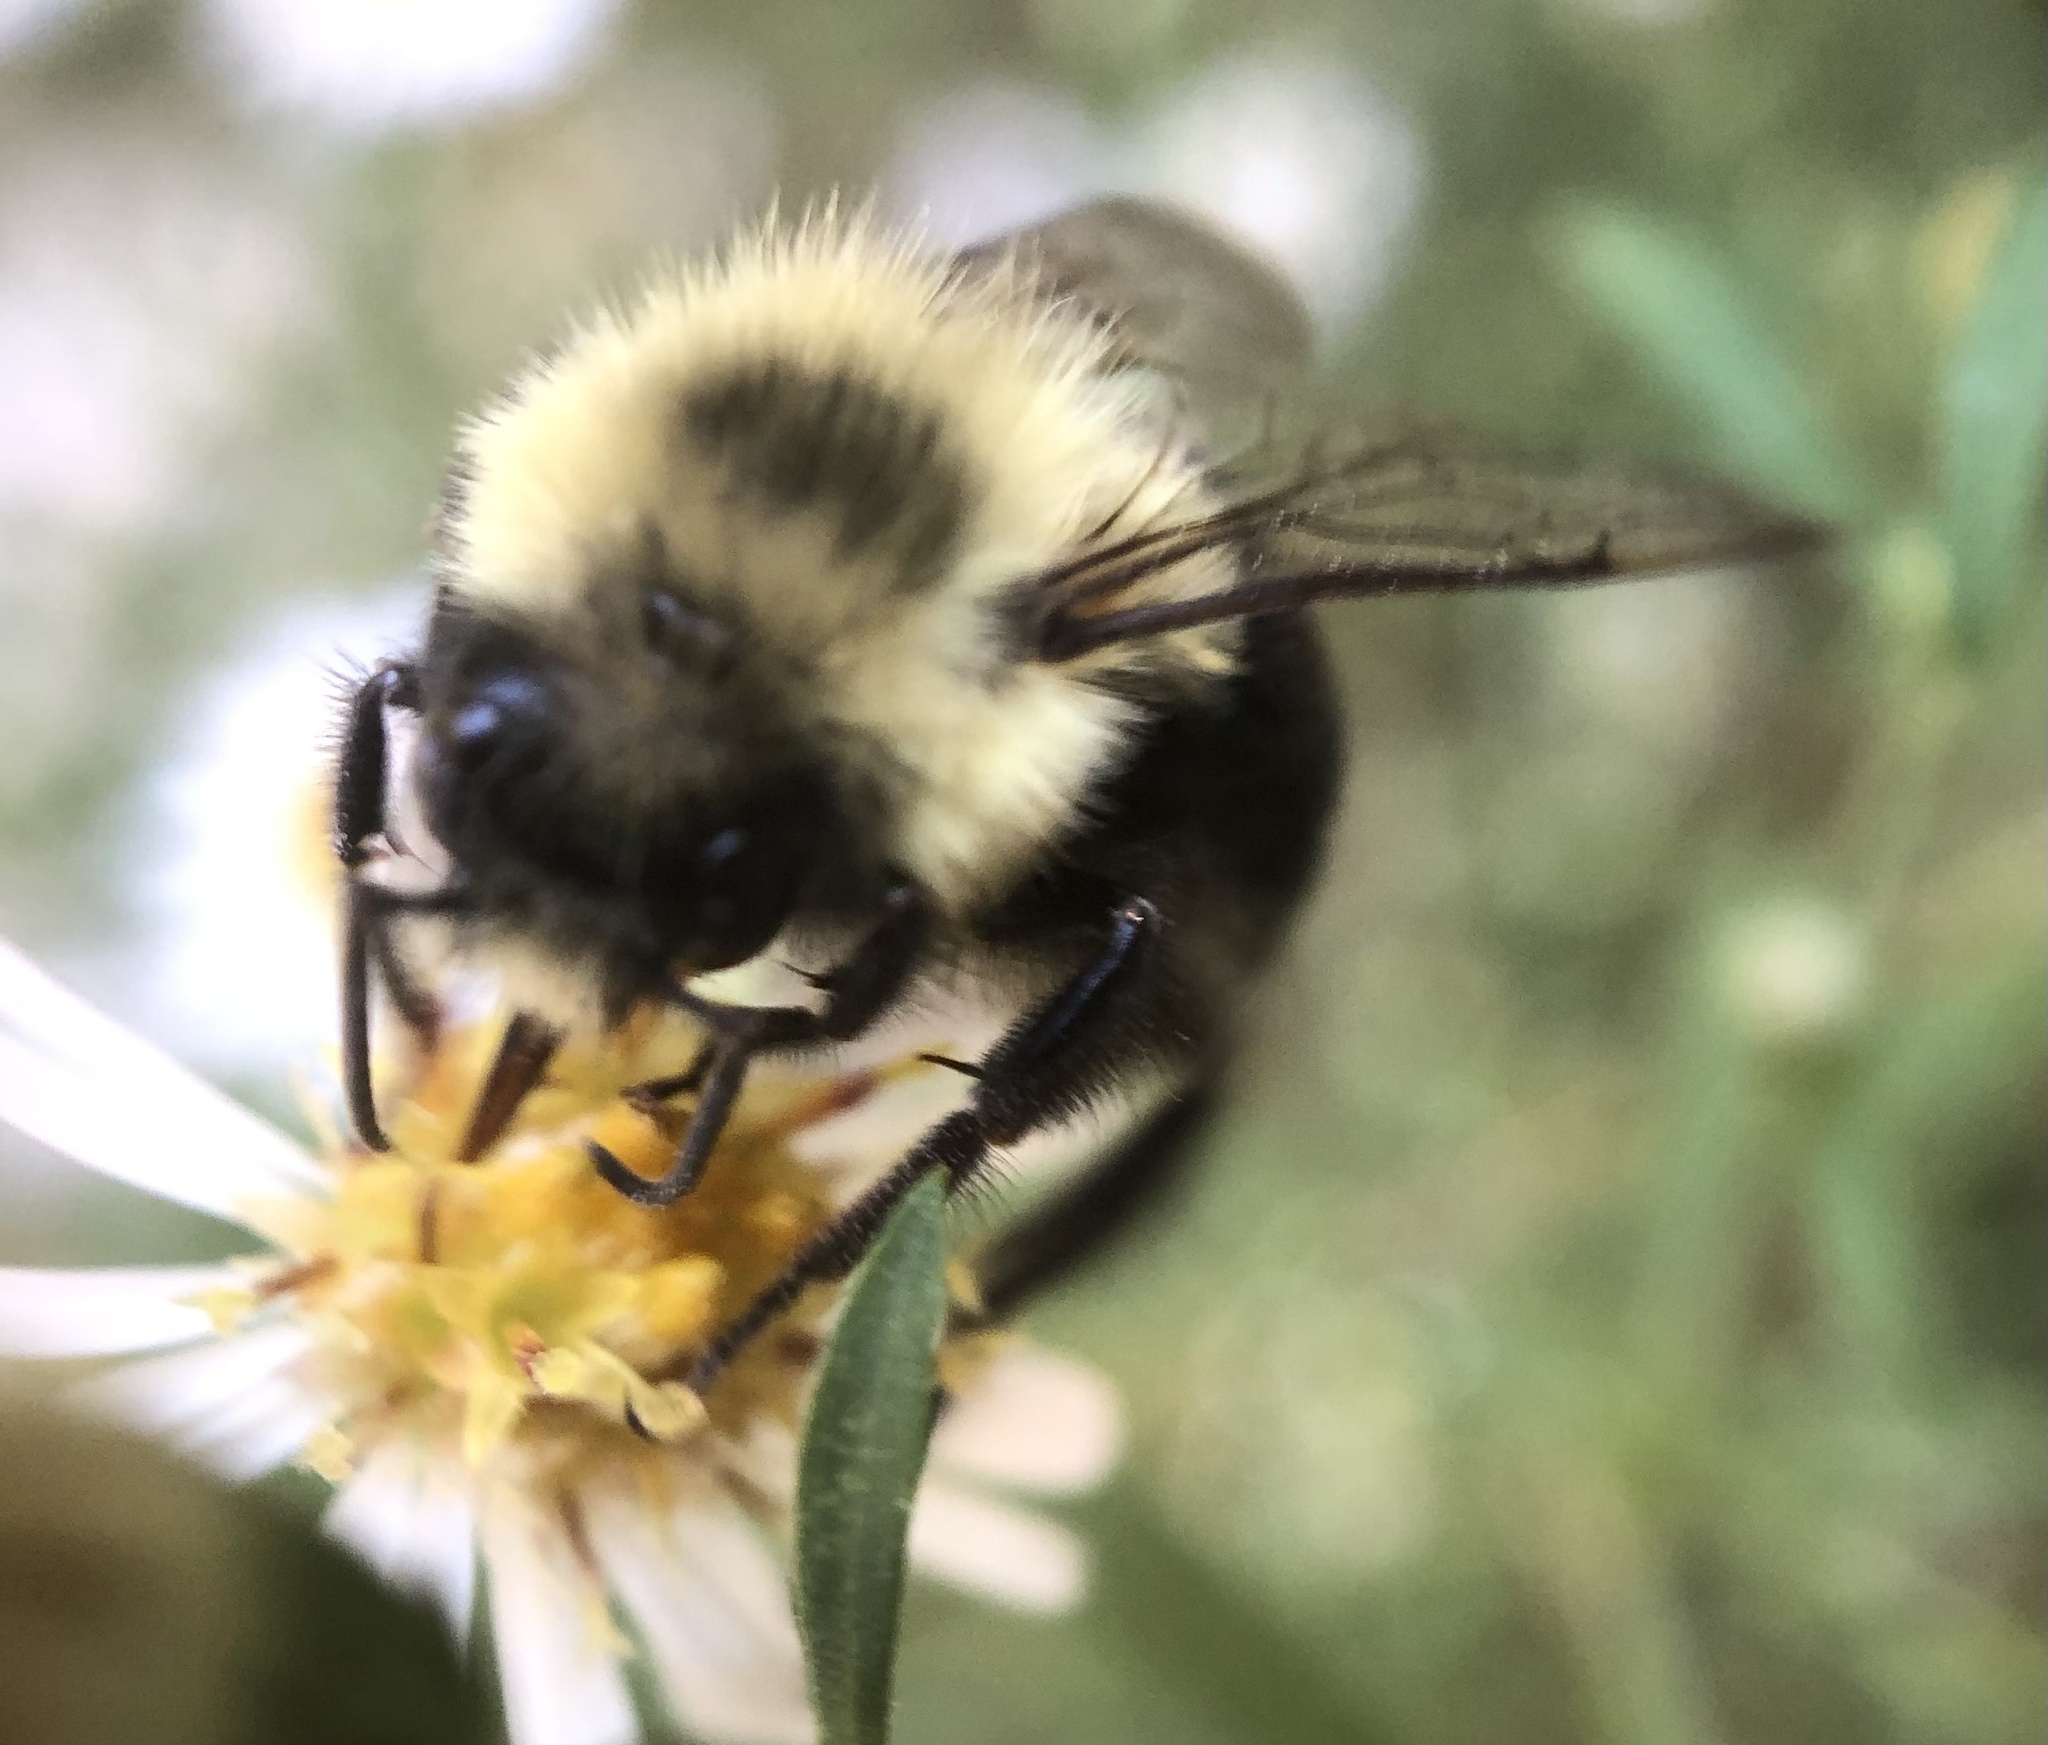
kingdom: Animalia
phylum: Arthropoda
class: Insecta
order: Hymenoptera
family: Apidae
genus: Bombus
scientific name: Bombus impatiens
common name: Common eastern bumble bee
